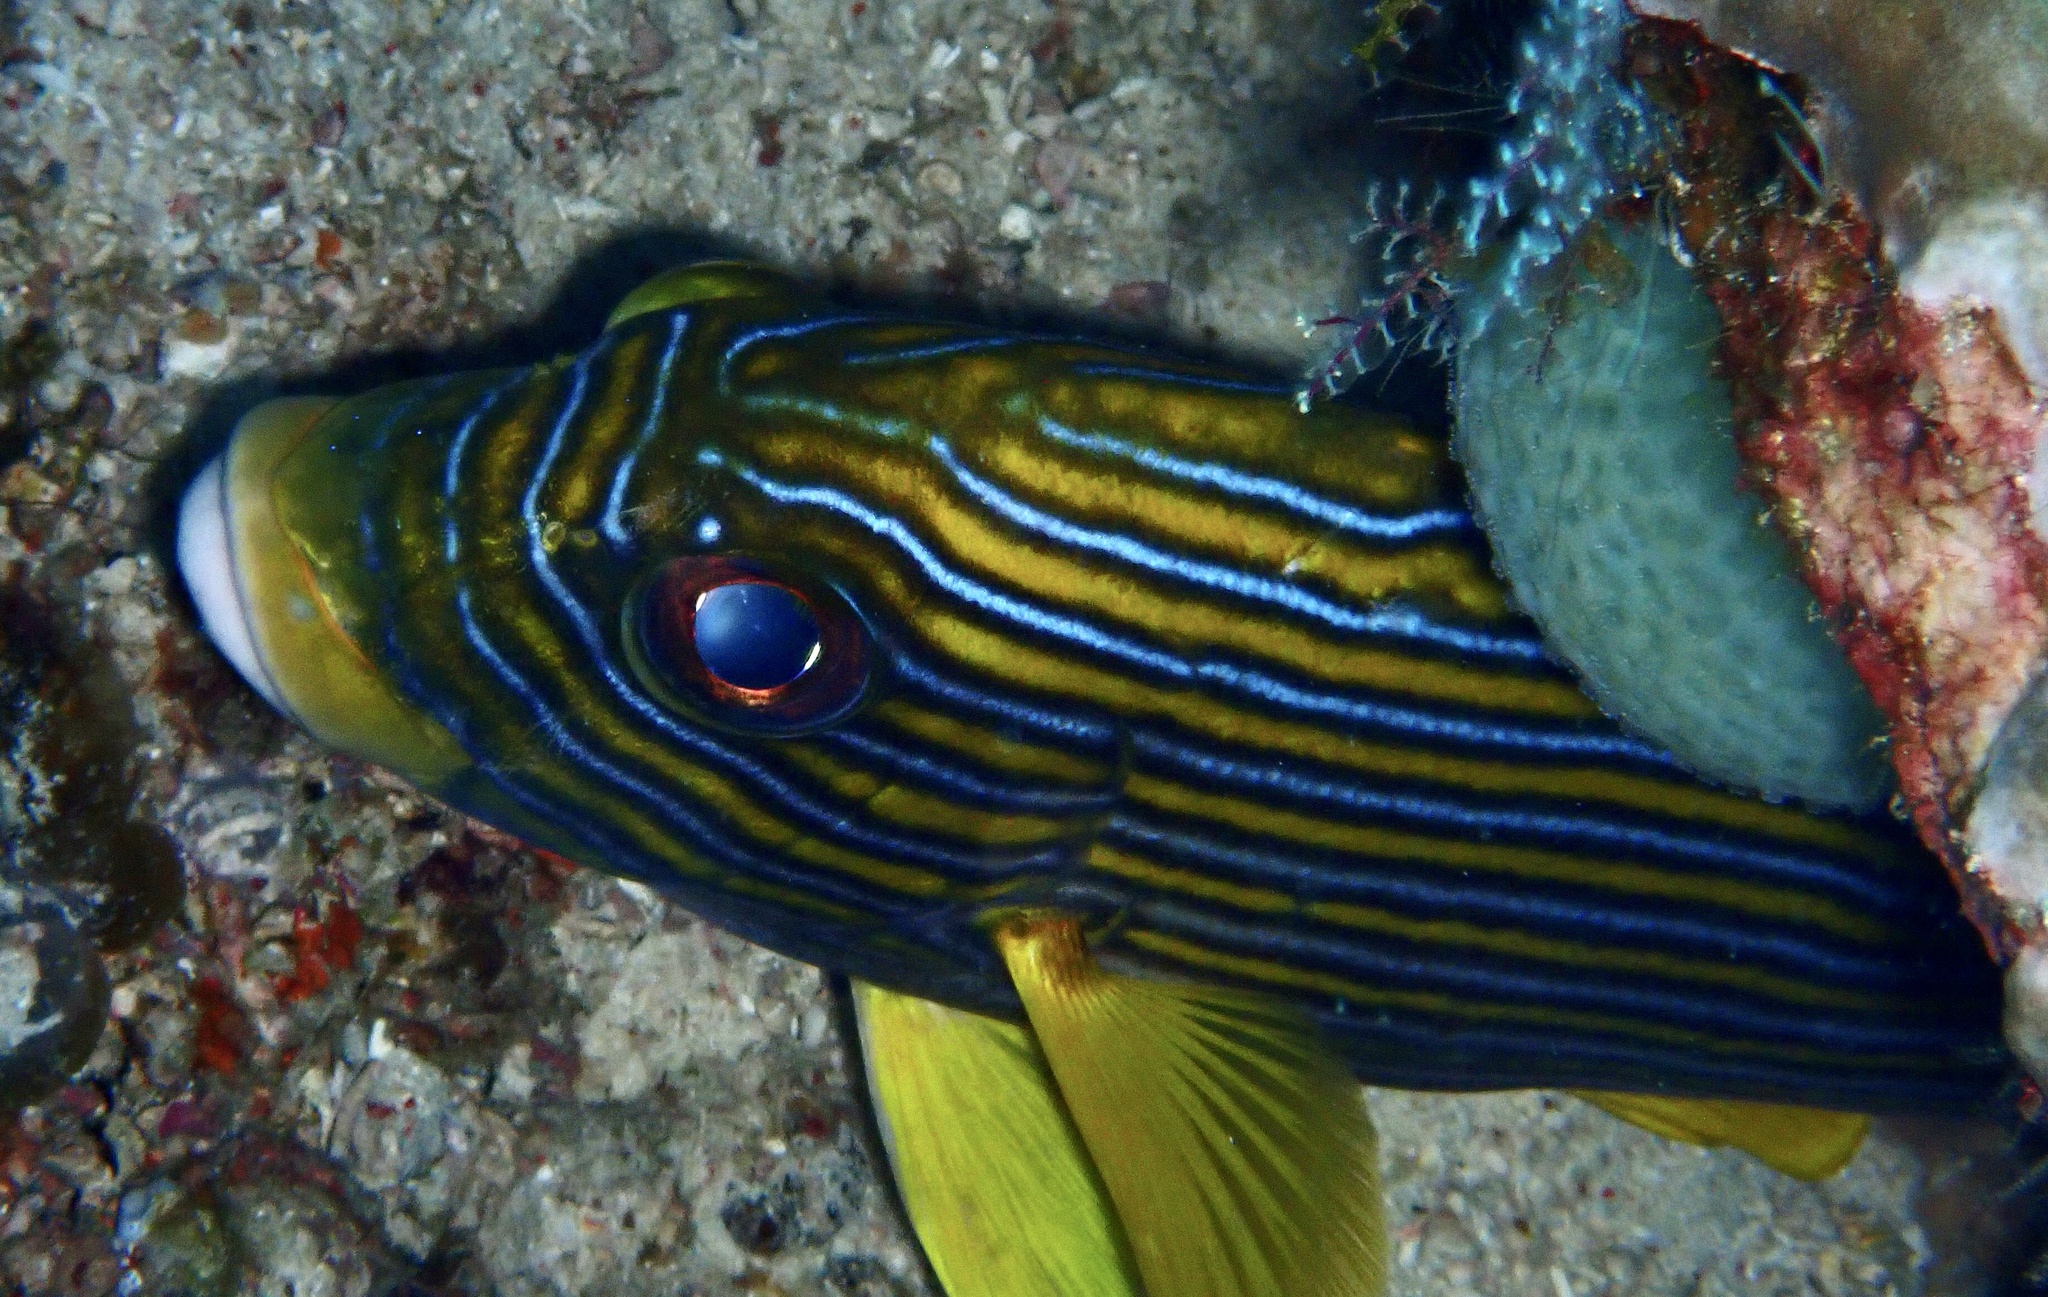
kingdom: Animalia
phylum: Chordata
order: Perciformes
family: Haemulidae
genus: Plectorhinchus
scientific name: Plectorhinchus polytaenia
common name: Ribboned sweetlips
